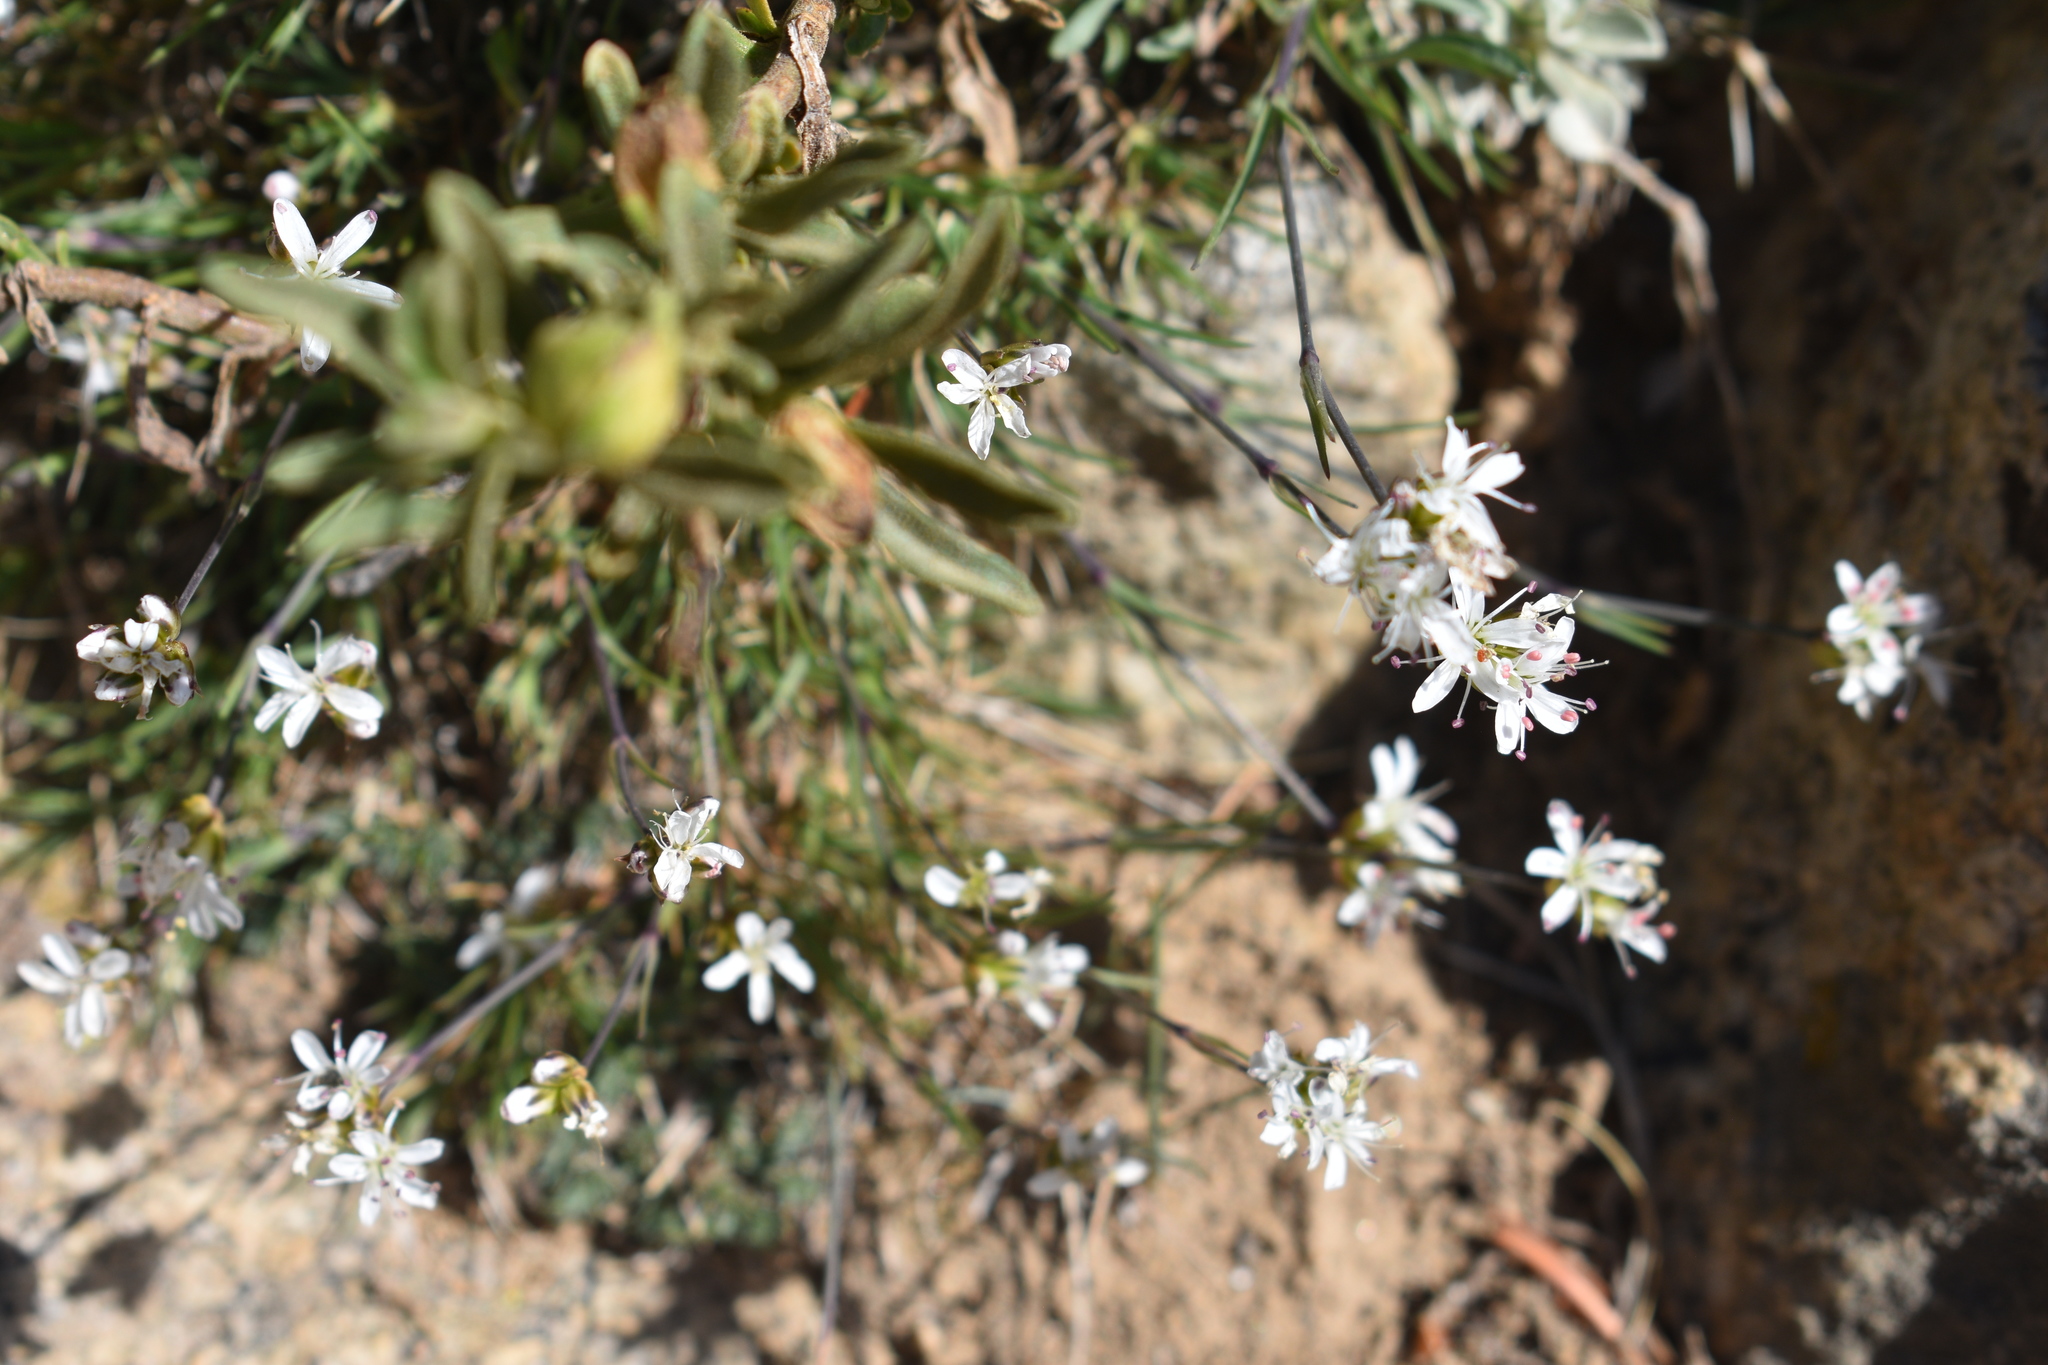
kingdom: Plantae
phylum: Tracheophyta
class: Magnoliopsida
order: Caryophyllales
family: Caryophyllaceae
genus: Eremogone
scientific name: Eremogone congesta
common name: Ballhead sandwort
